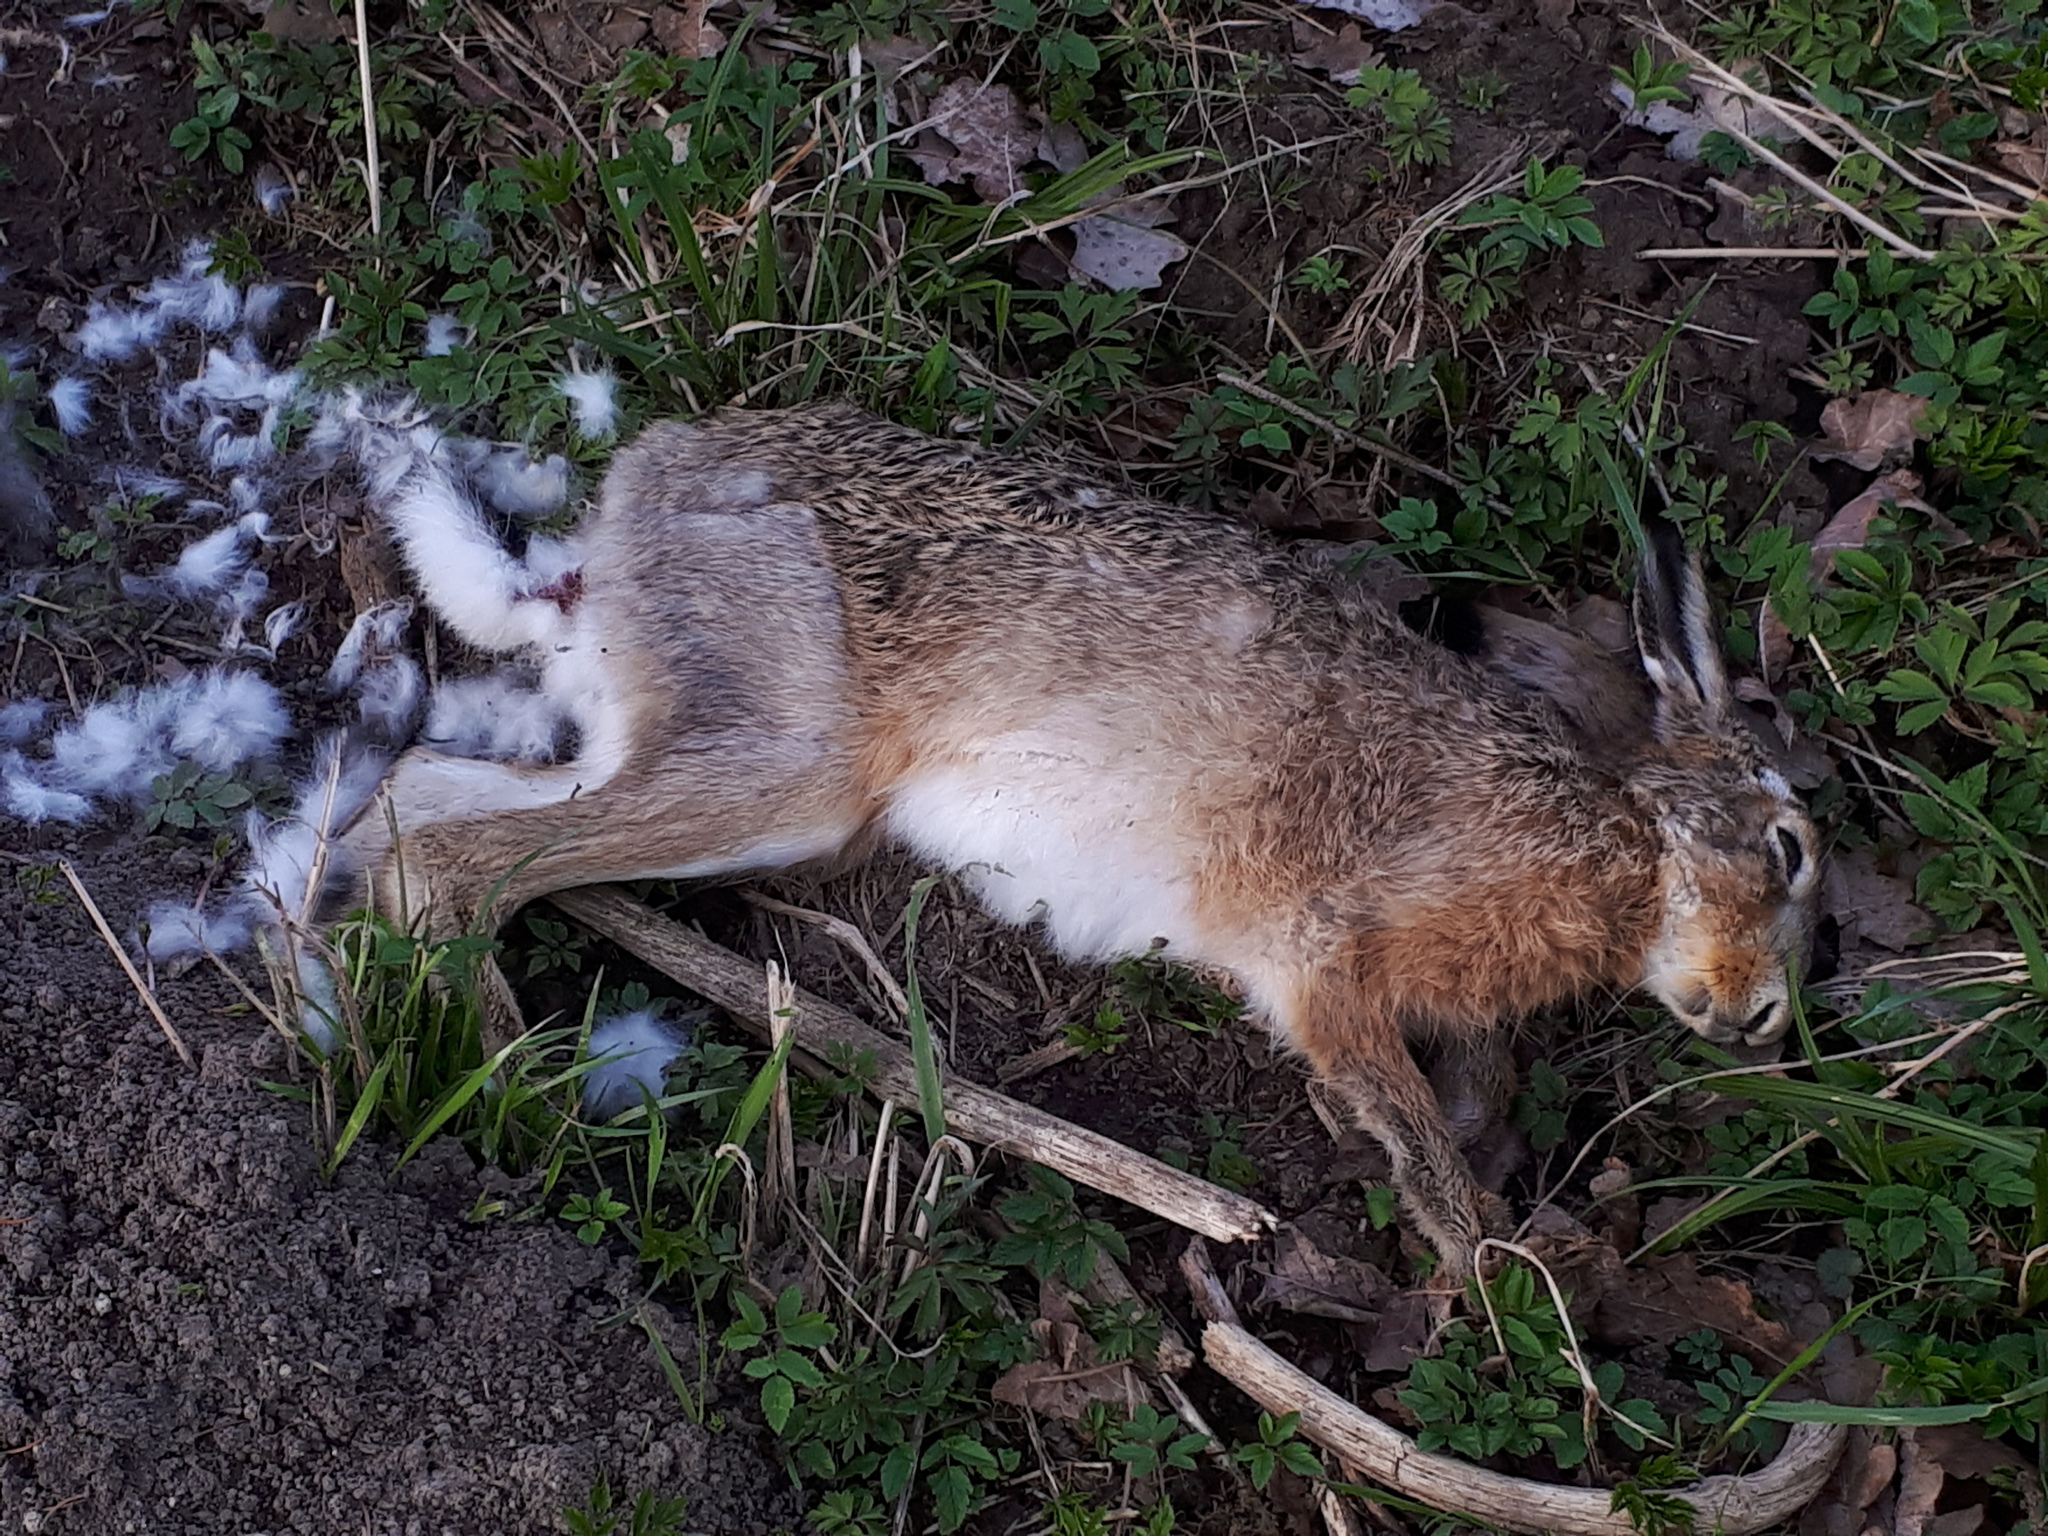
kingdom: Animalia
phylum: Chordata
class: Mammalia
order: Lagomorpha
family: Leporidae
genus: Lepus
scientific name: Lepus europaeus
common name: European hare
